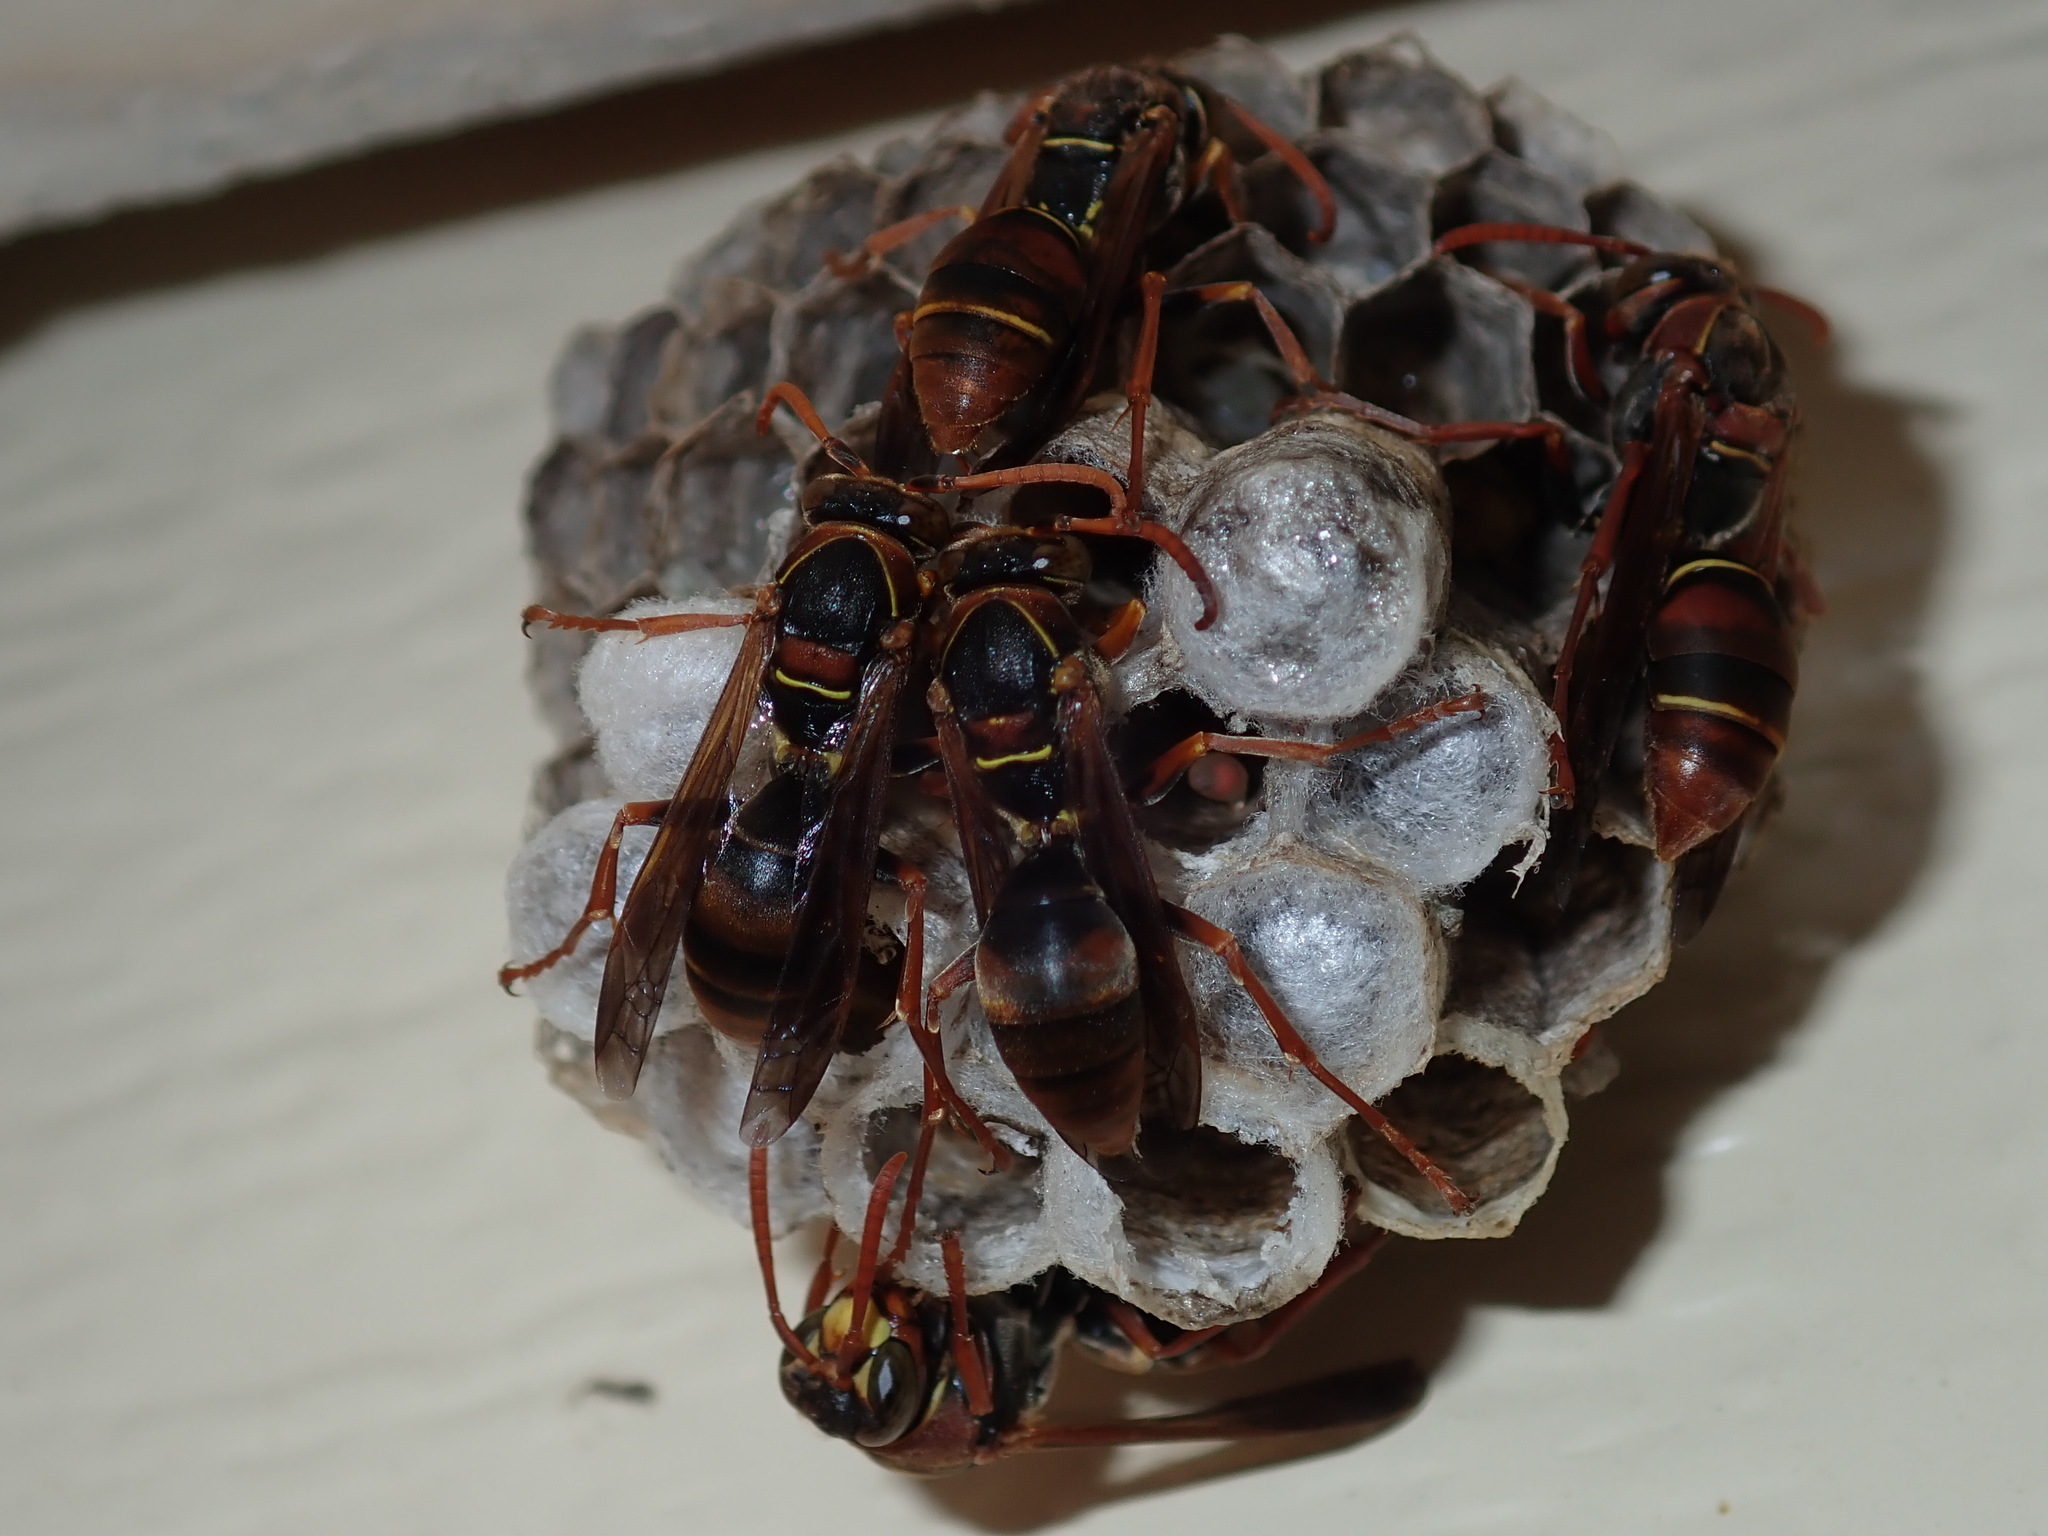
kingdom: Animalia
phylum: Arthropoda
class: Insecta
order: Hymenoptera
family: Eumenidae
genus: Polistes
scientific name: Polistes humilis
